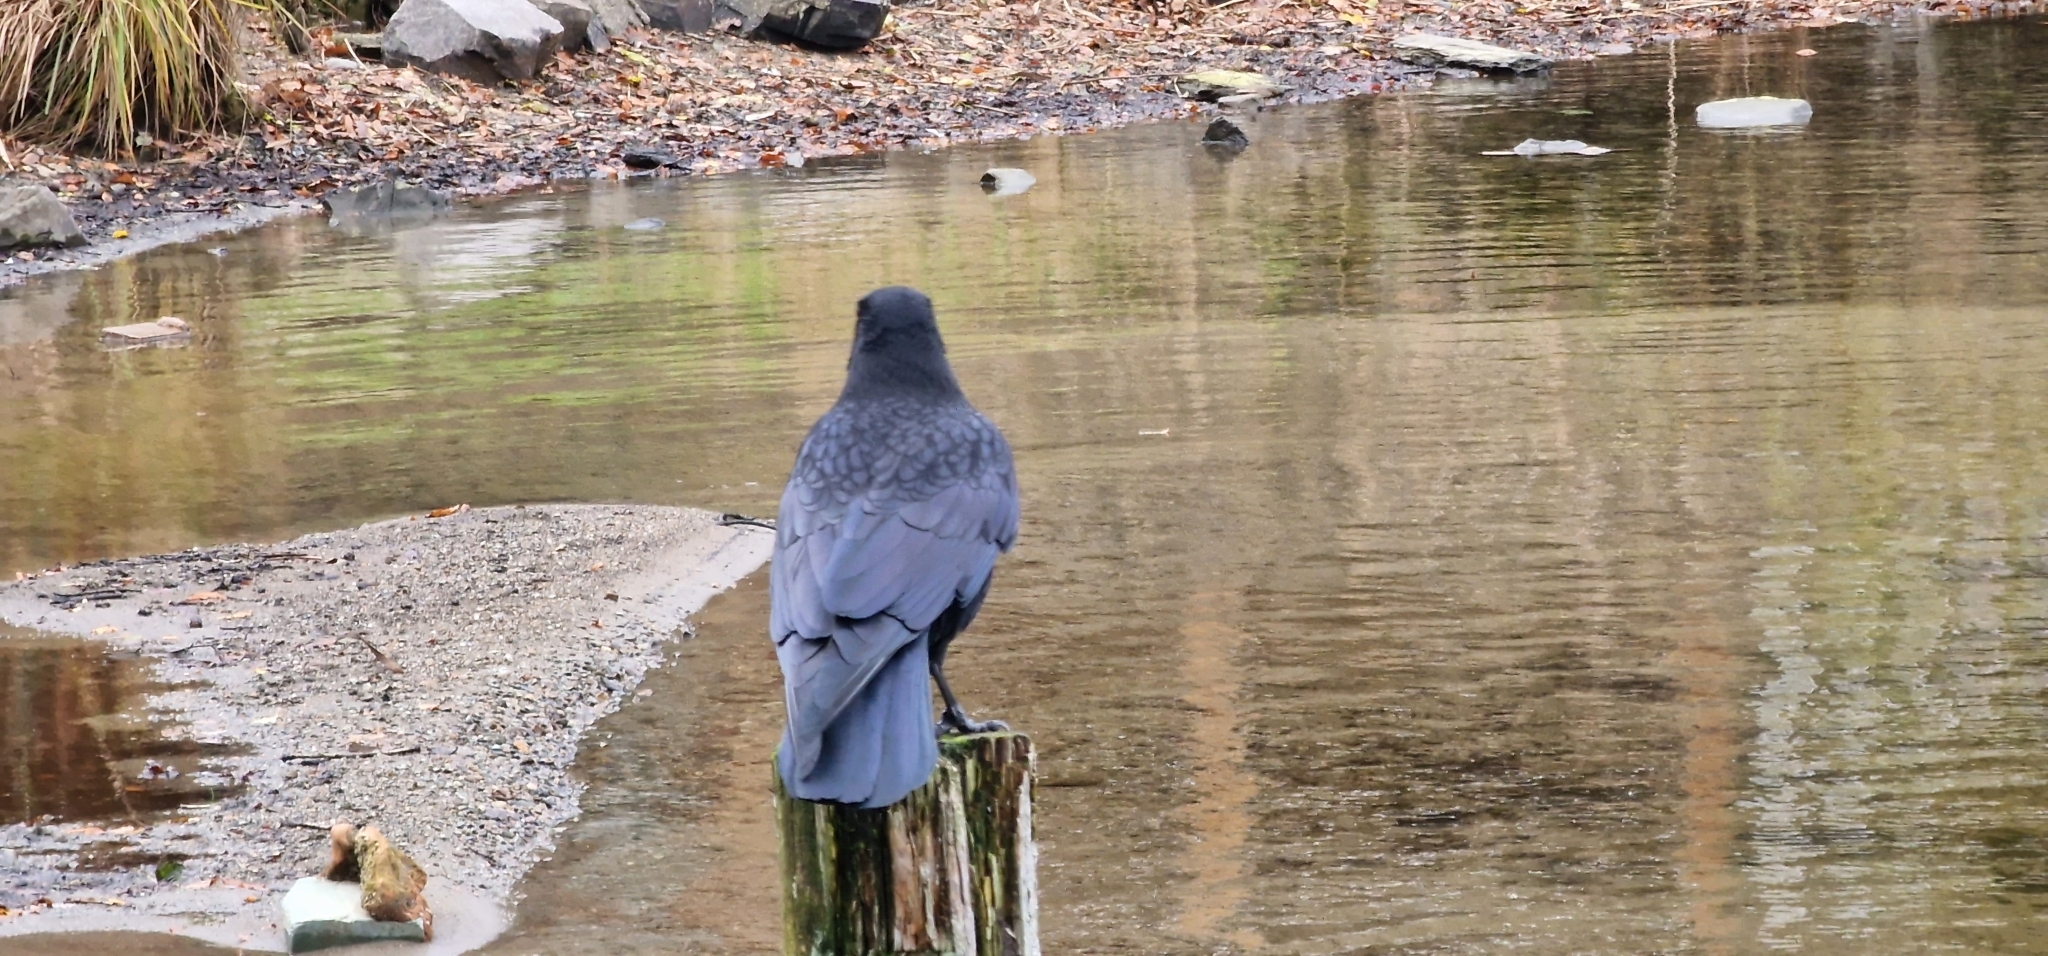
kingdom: Animalia
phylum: Chordata
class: Aves
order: Passeriformes
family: Corvidae
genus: Corvus
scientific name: Corvus corone
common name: Carrion crow
